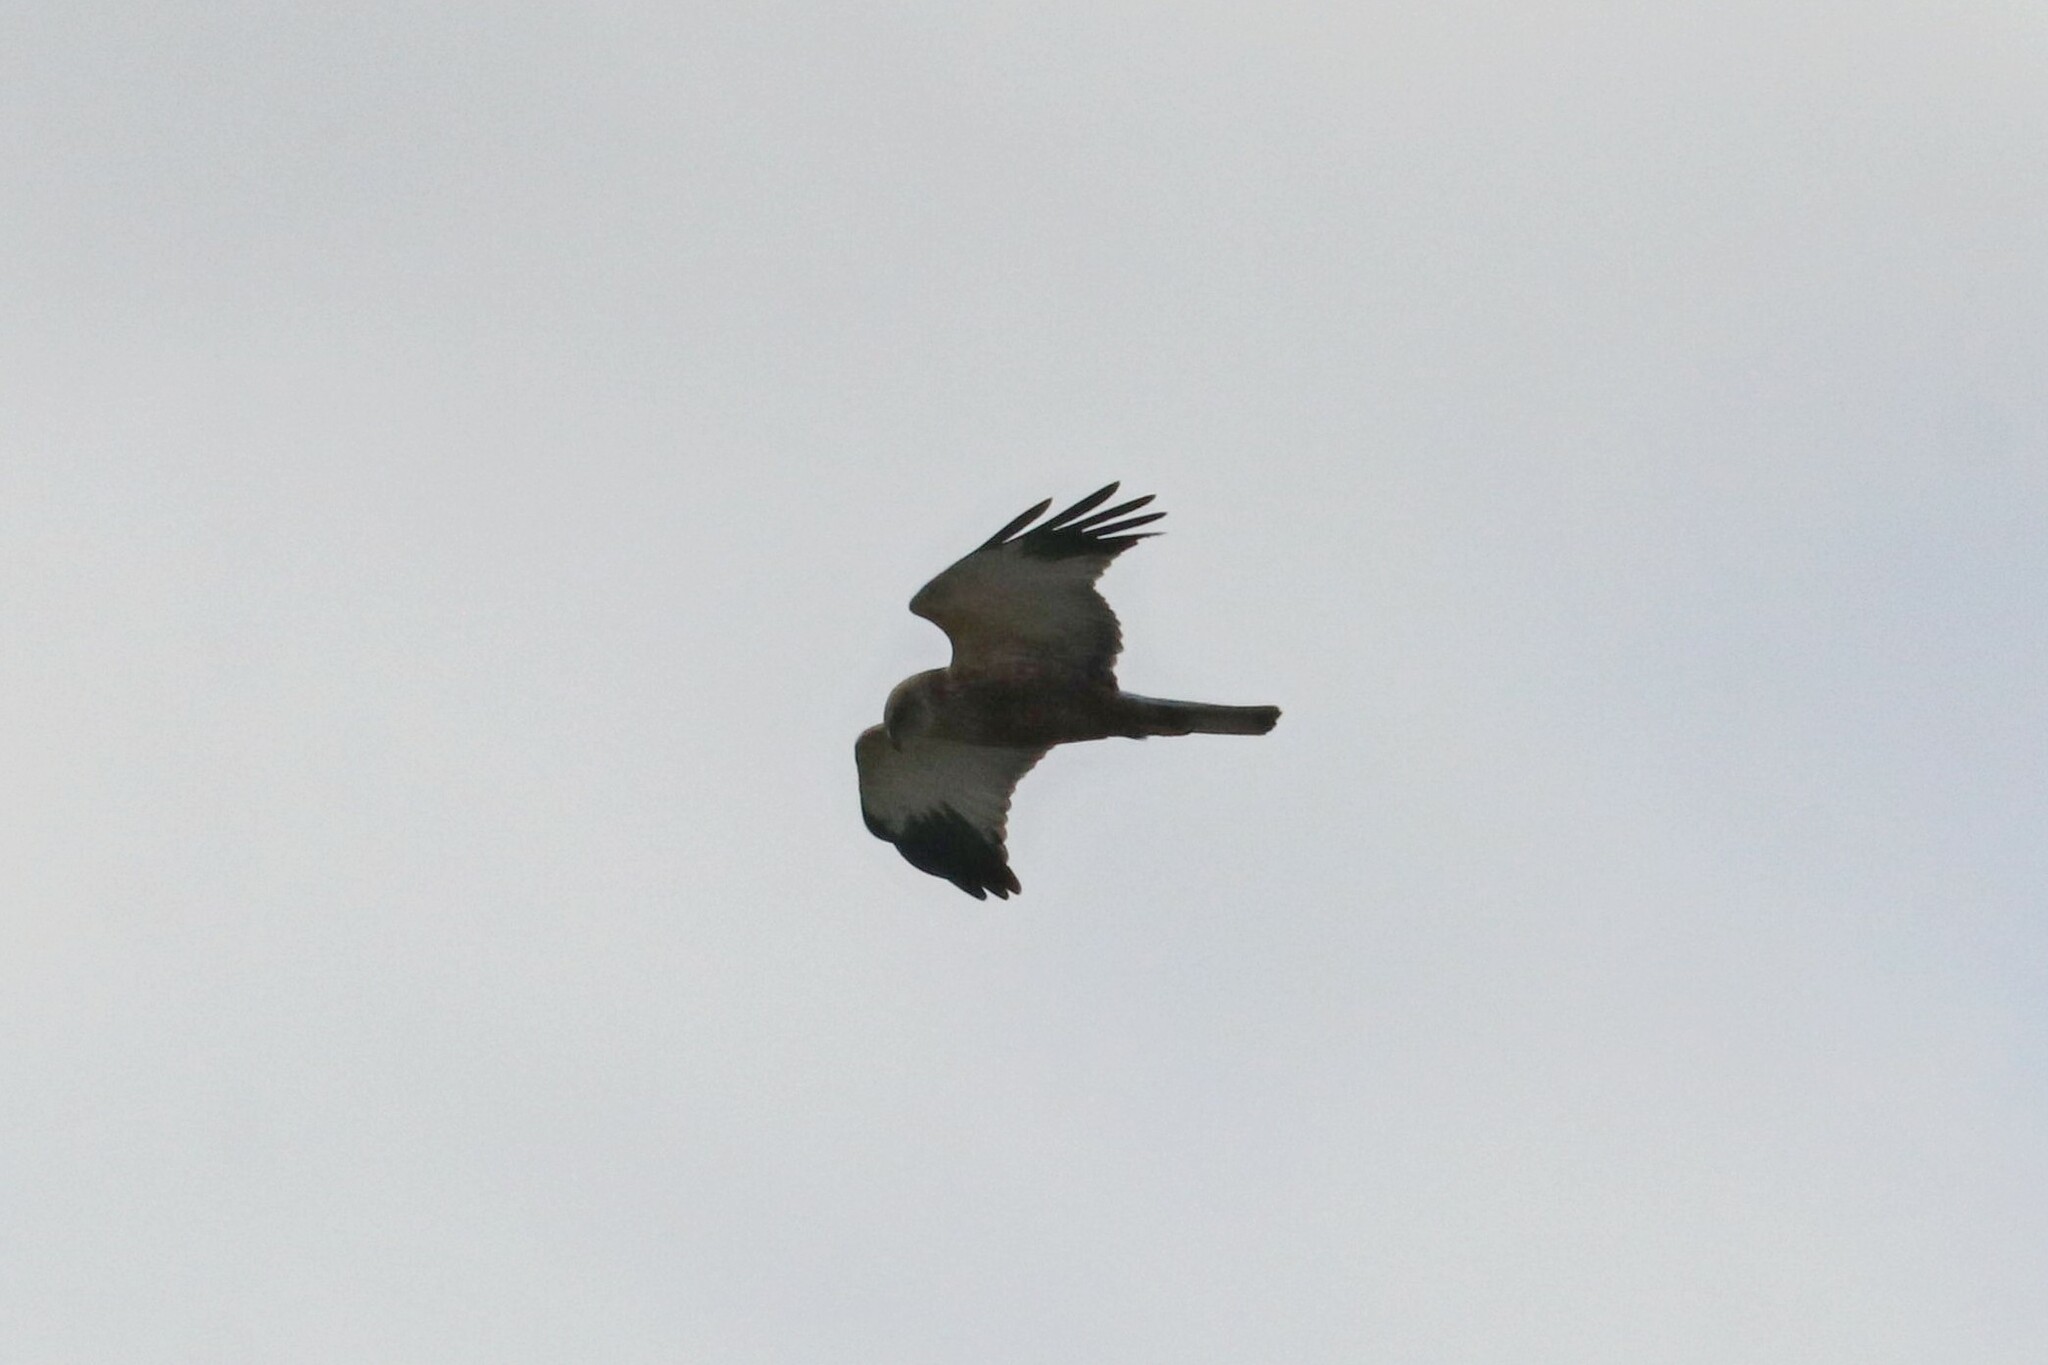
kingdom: Animalia
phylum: Chordata
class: Aves
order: Accipitriformes
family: Accipitridae
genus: Circus
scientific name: Circus aeruginosus
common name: Western marsh harrier
